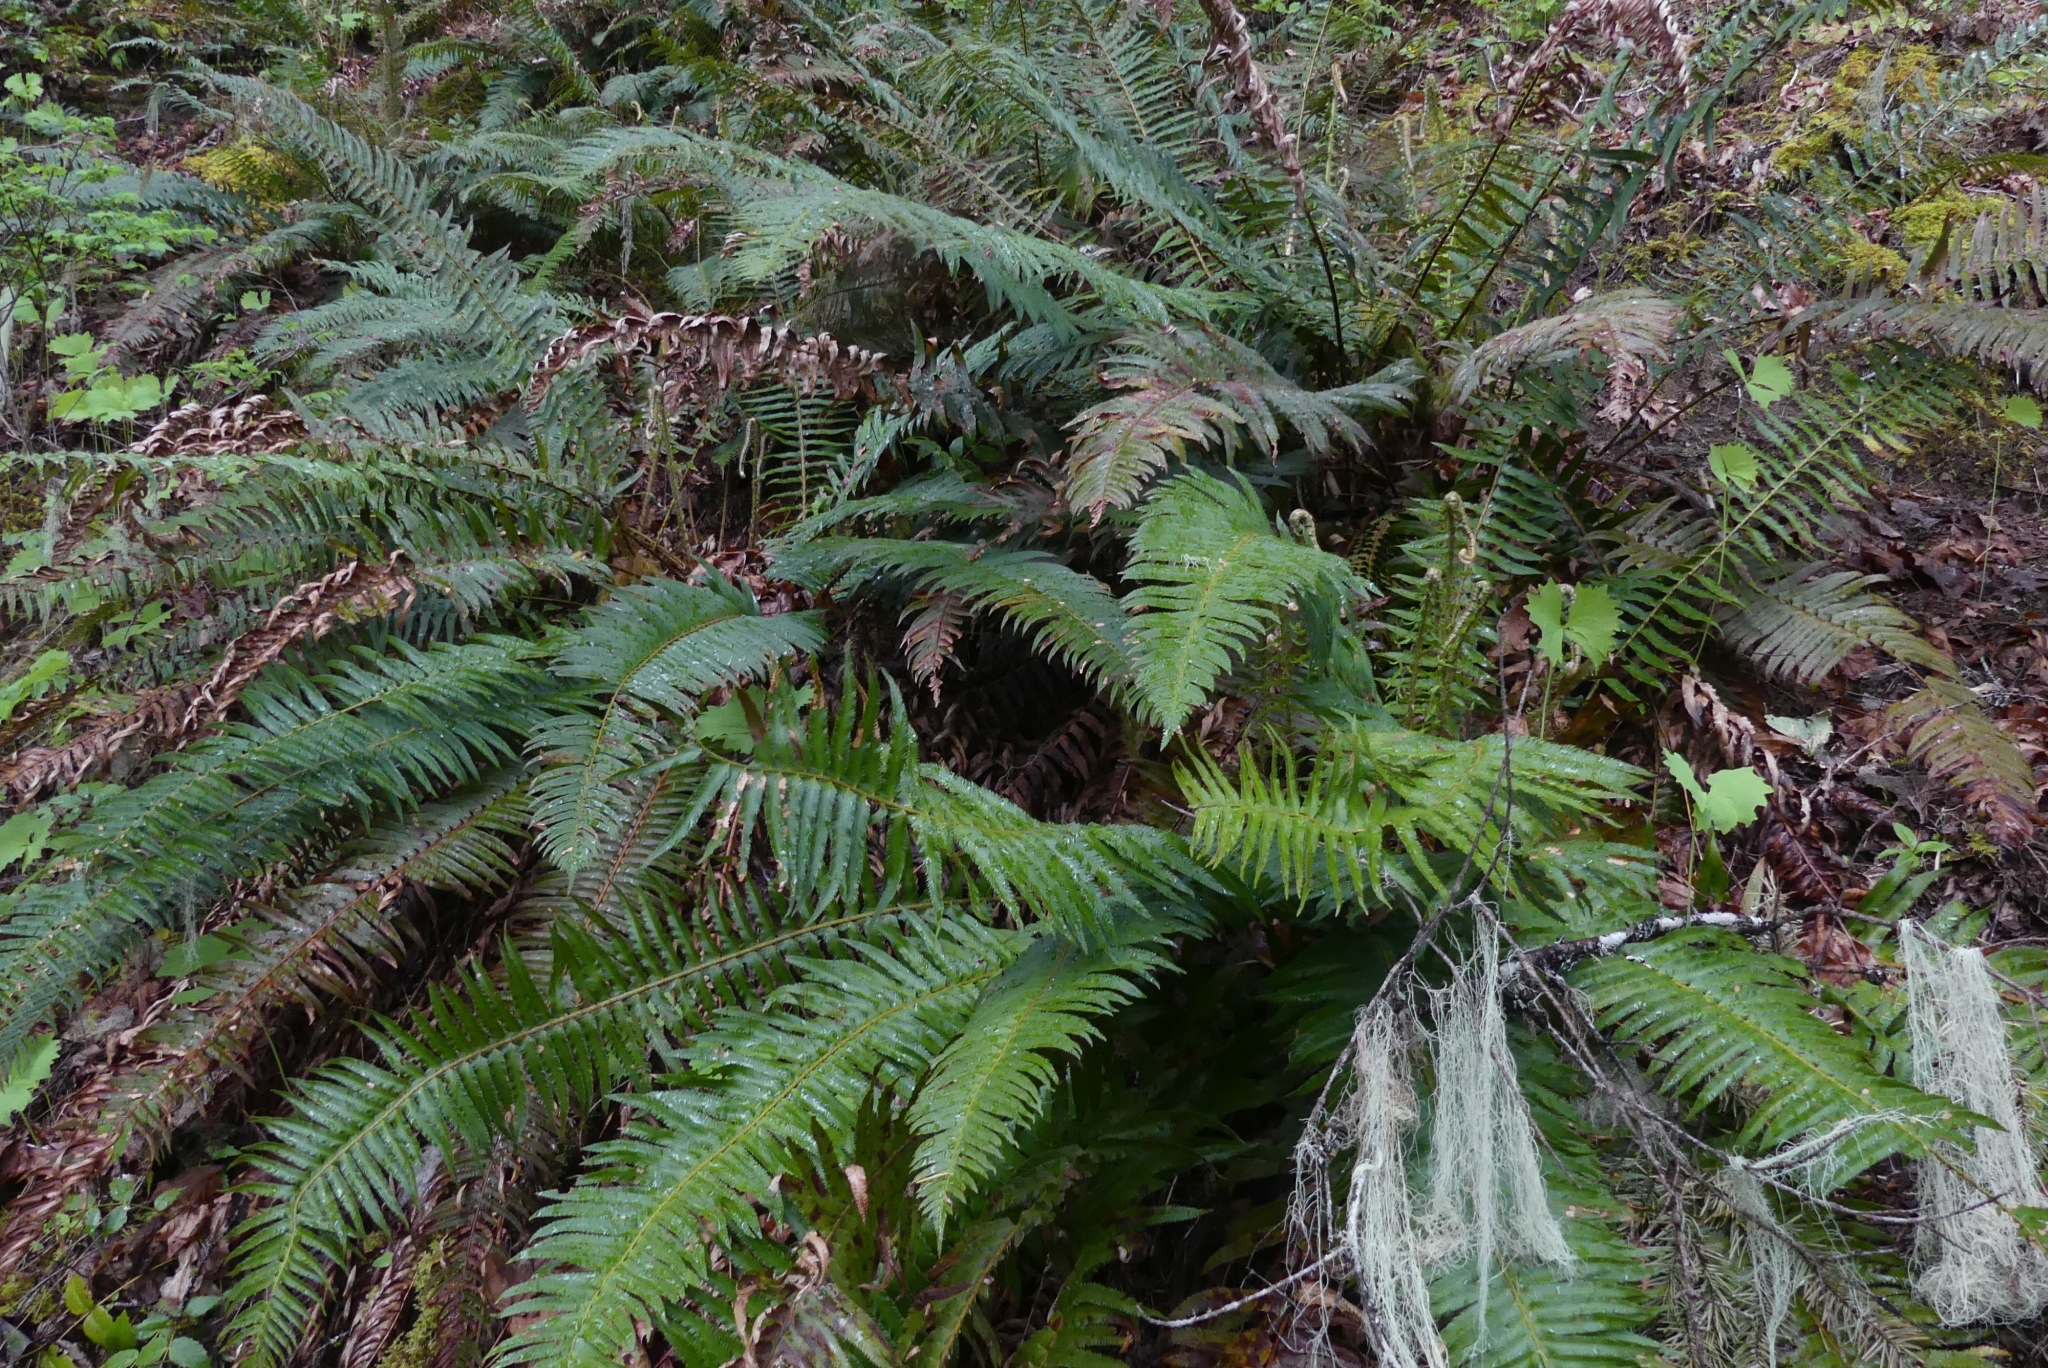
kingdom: Plantae
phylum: Tracheophyta
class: Polypodiopsida
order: Polypodiales
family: Dryopteridaceae
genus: Polystichum
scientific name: Polystichum munitum
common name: Western sword-fern
